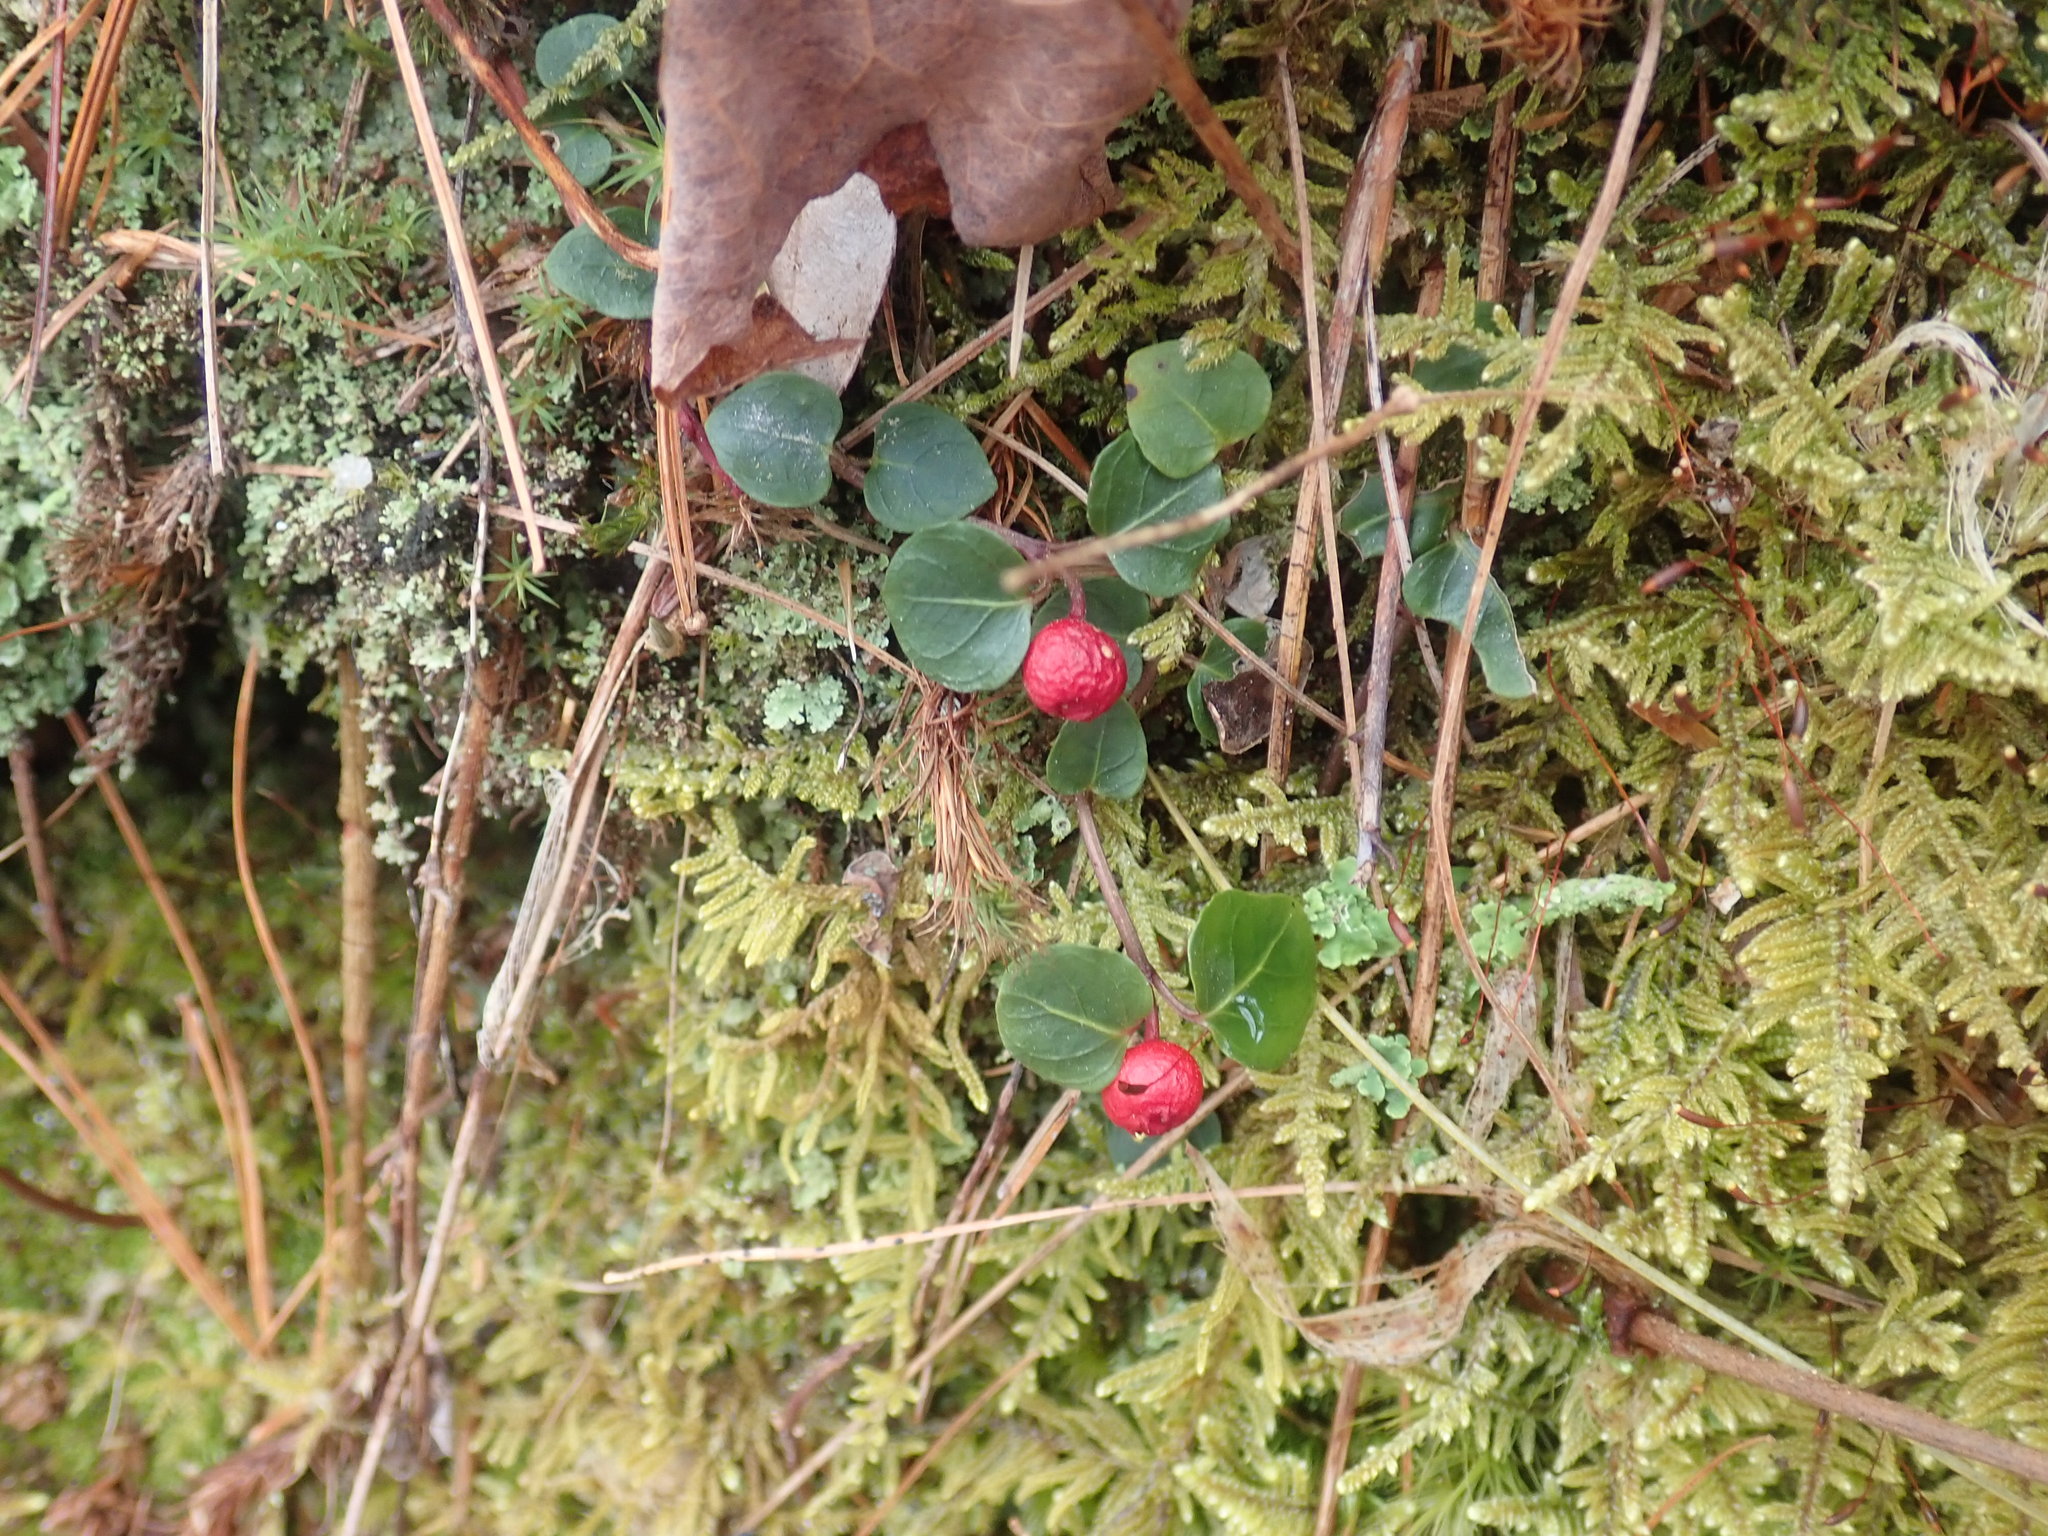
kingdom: Plantae
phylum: Tracheophyta
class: Magnoliopsida
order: Gentianales
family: Rubiaceae
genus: Mitchella
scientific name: Mitchella repens
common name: Partridge-berry
